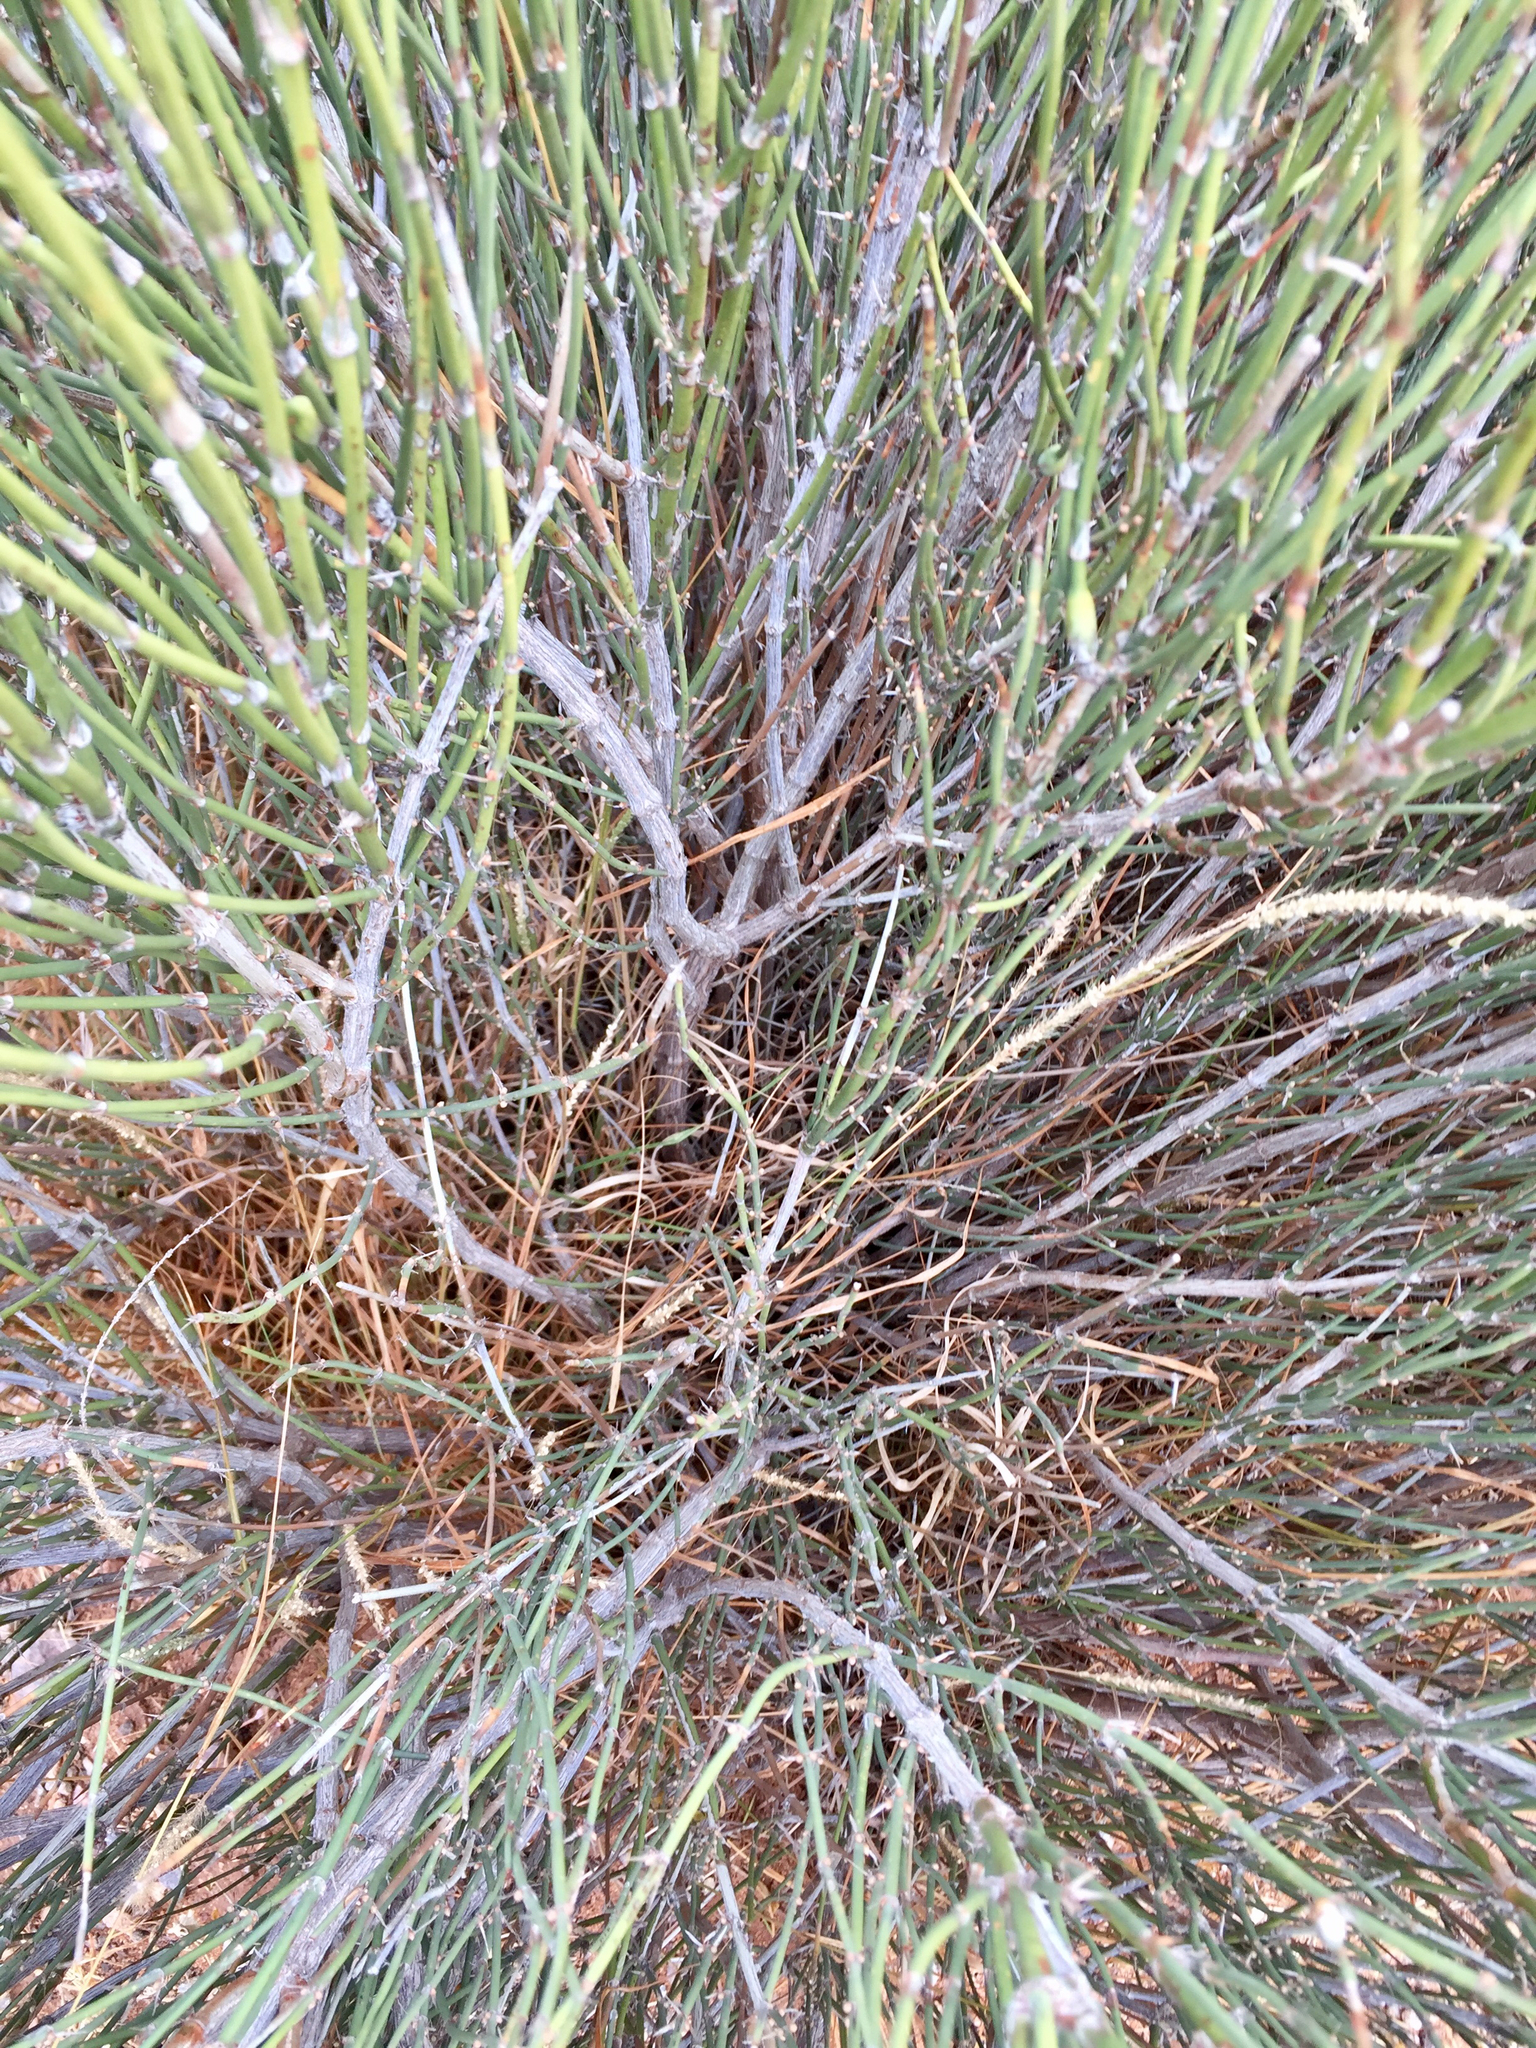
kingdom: Plantae
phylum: Tracheophyta
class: Gnetopsida
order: Ephedrales
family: Ephedraceae
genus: Ephedra
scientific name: Ephedra trifurca
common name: Mexican-tea
